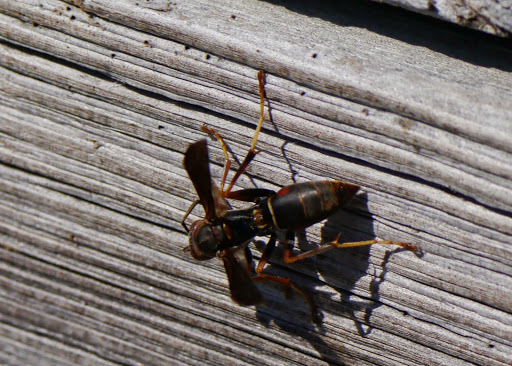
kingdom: Animalia
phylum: Arthropoda
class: Insecta
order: Hymenoptera
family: Eumenidae
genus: Polistes
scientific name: Polistes fuscatus
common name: Dark paper wasp
